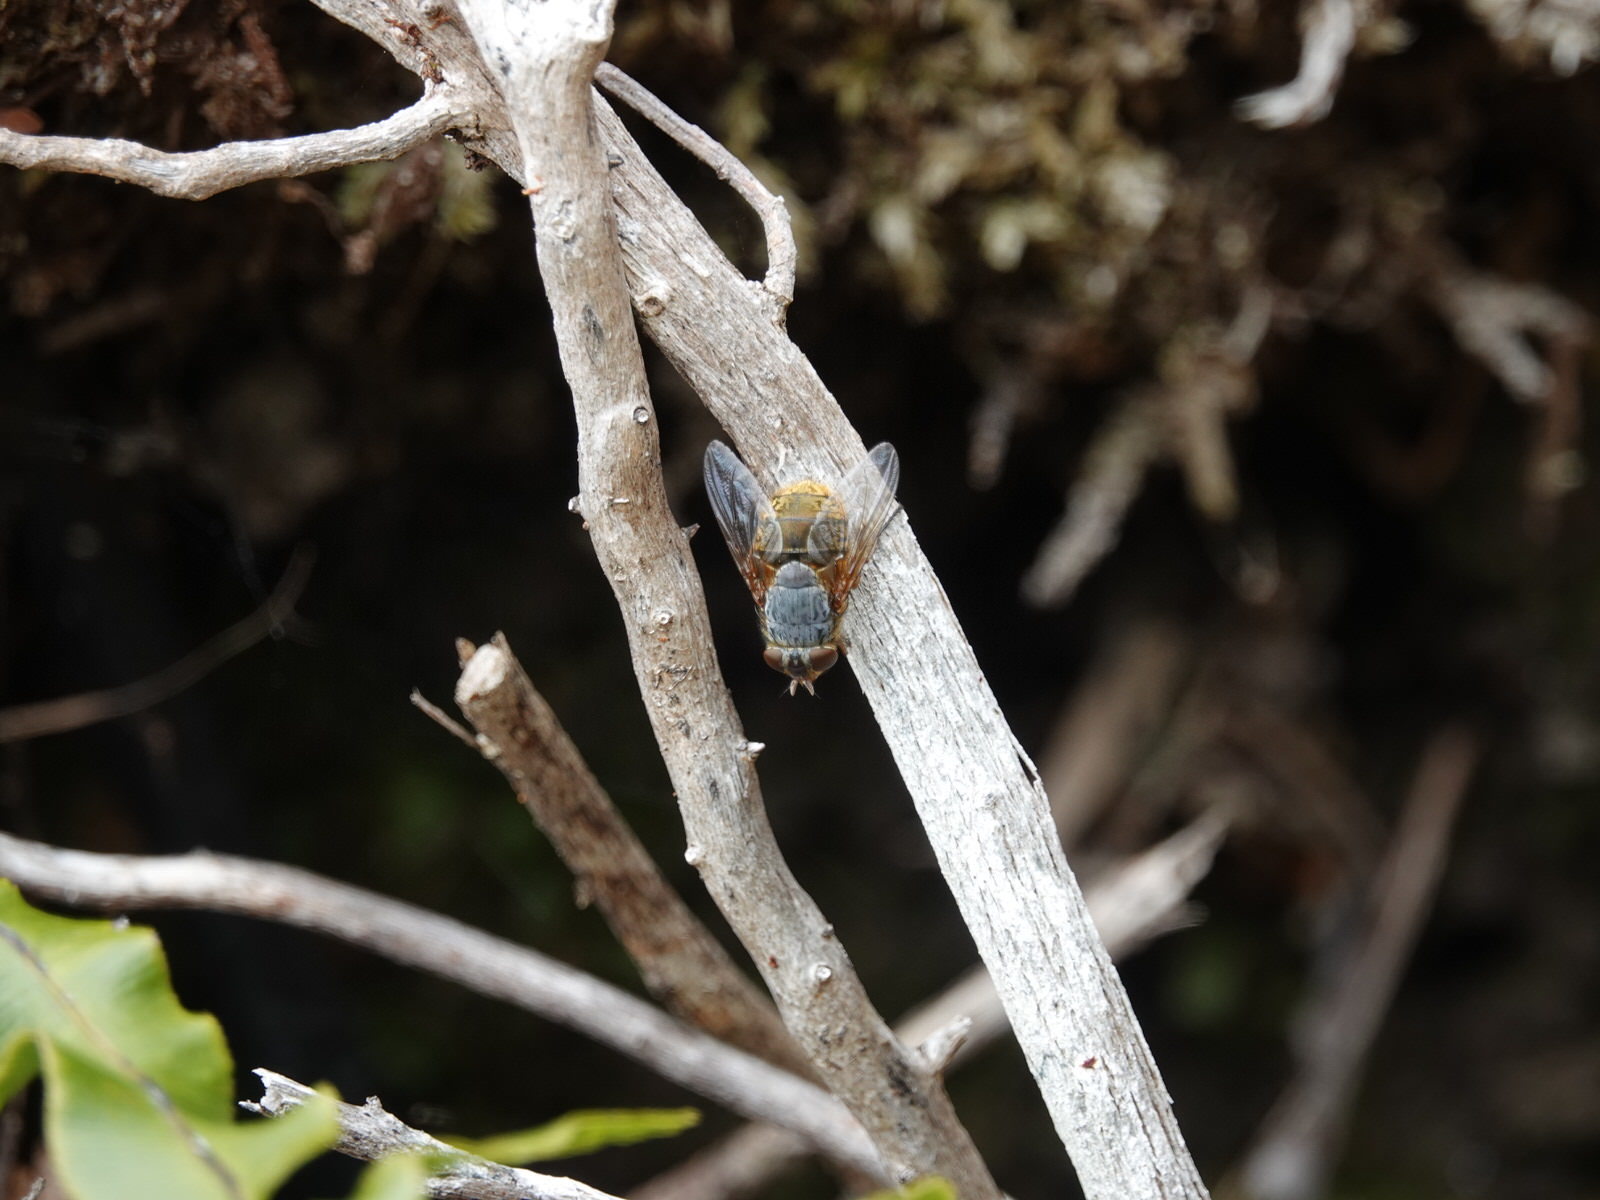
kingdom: Animalia
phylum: Arthropoda
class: Insecta
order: Diptera
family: Calliphoridae
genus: Calliphora
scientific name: Calliphora stygia
